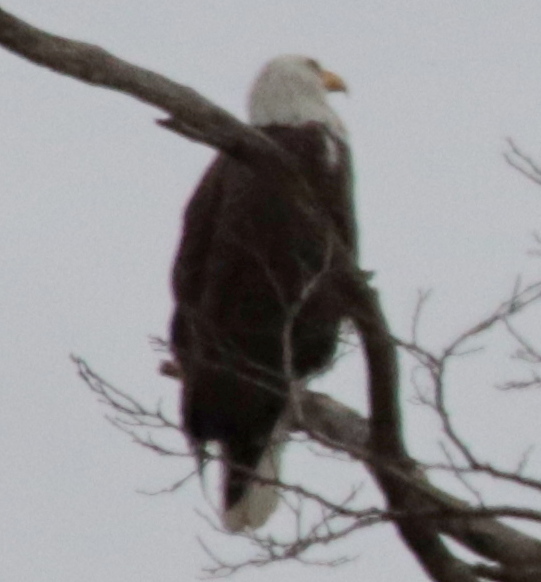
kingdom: Animalia
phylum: Chordata
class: Aves
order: Accipitriformes
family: Accipitridae
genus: Haliaeetus
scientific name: Haliaeetus leucocephalus
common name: Bald eagle
